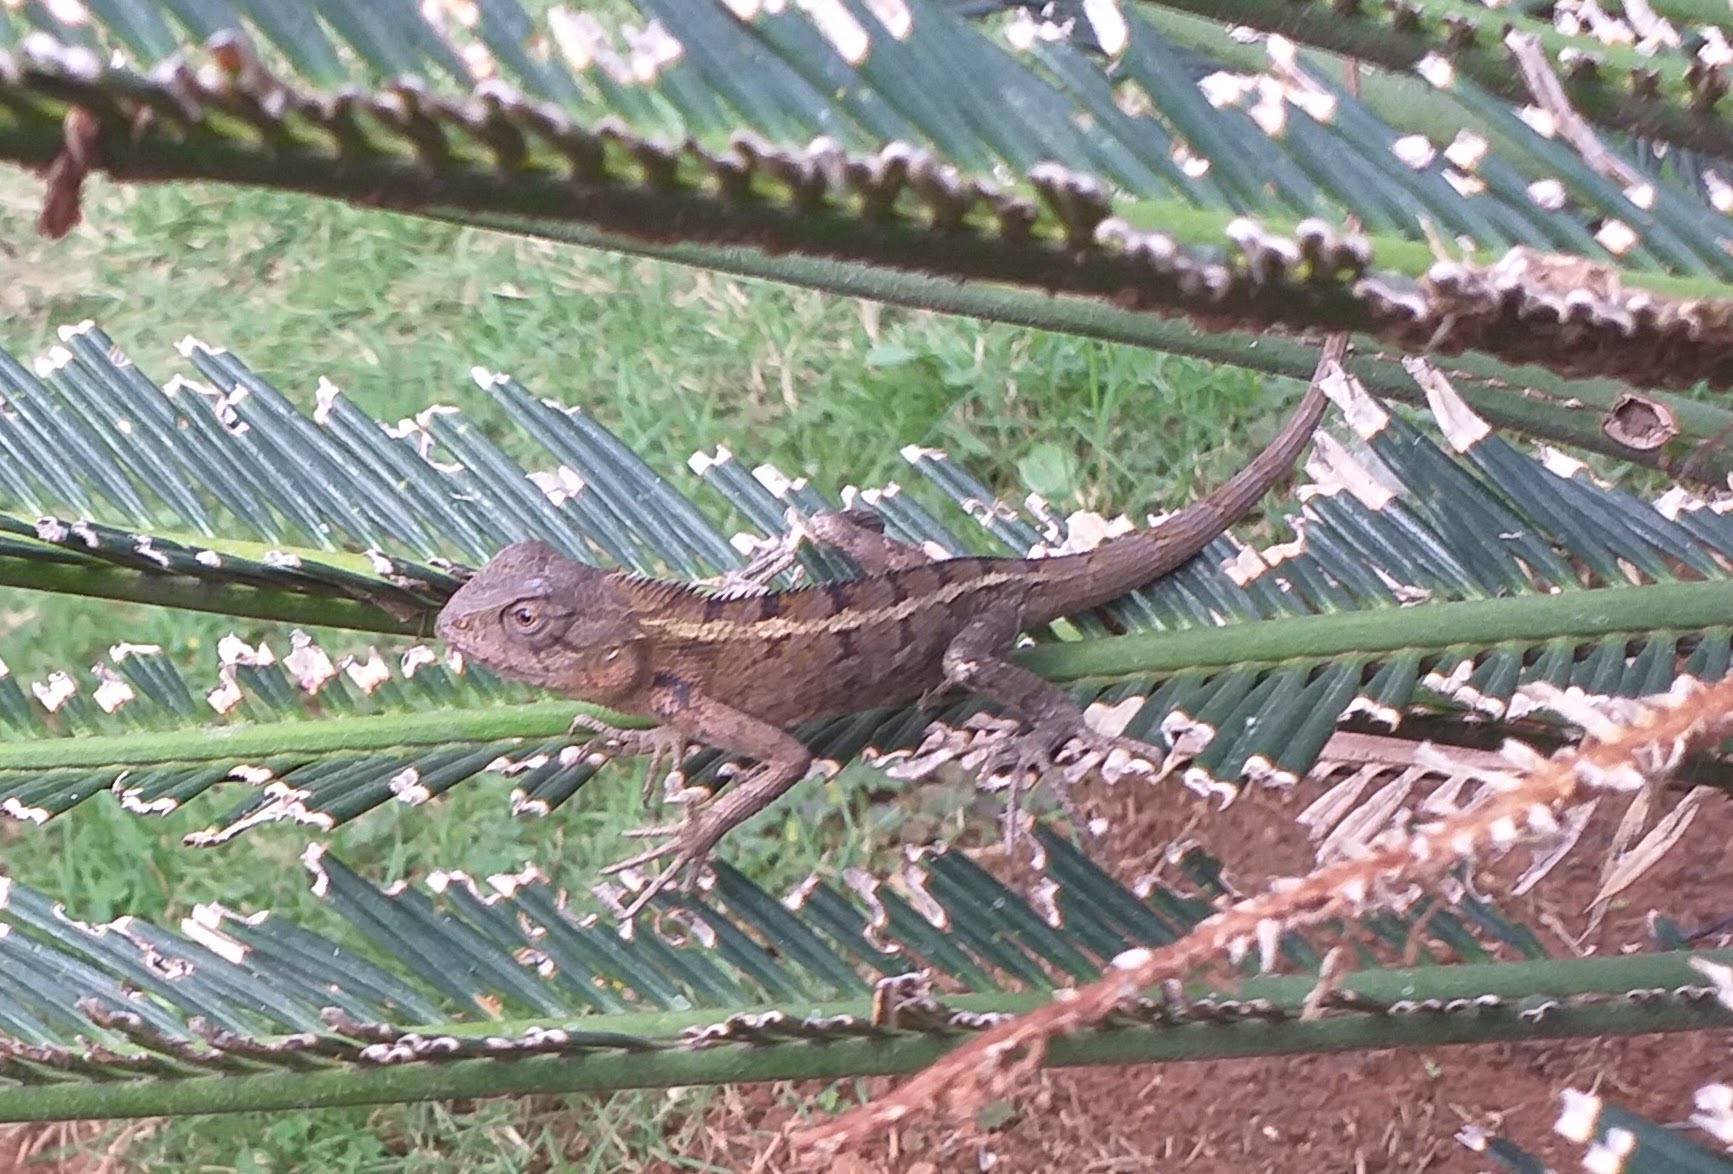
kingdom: Animalia
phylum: Chordata
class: Squamata
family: Agamidae
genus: Calotes
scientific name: Calotes versicolor
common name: Oriental garden lizard
